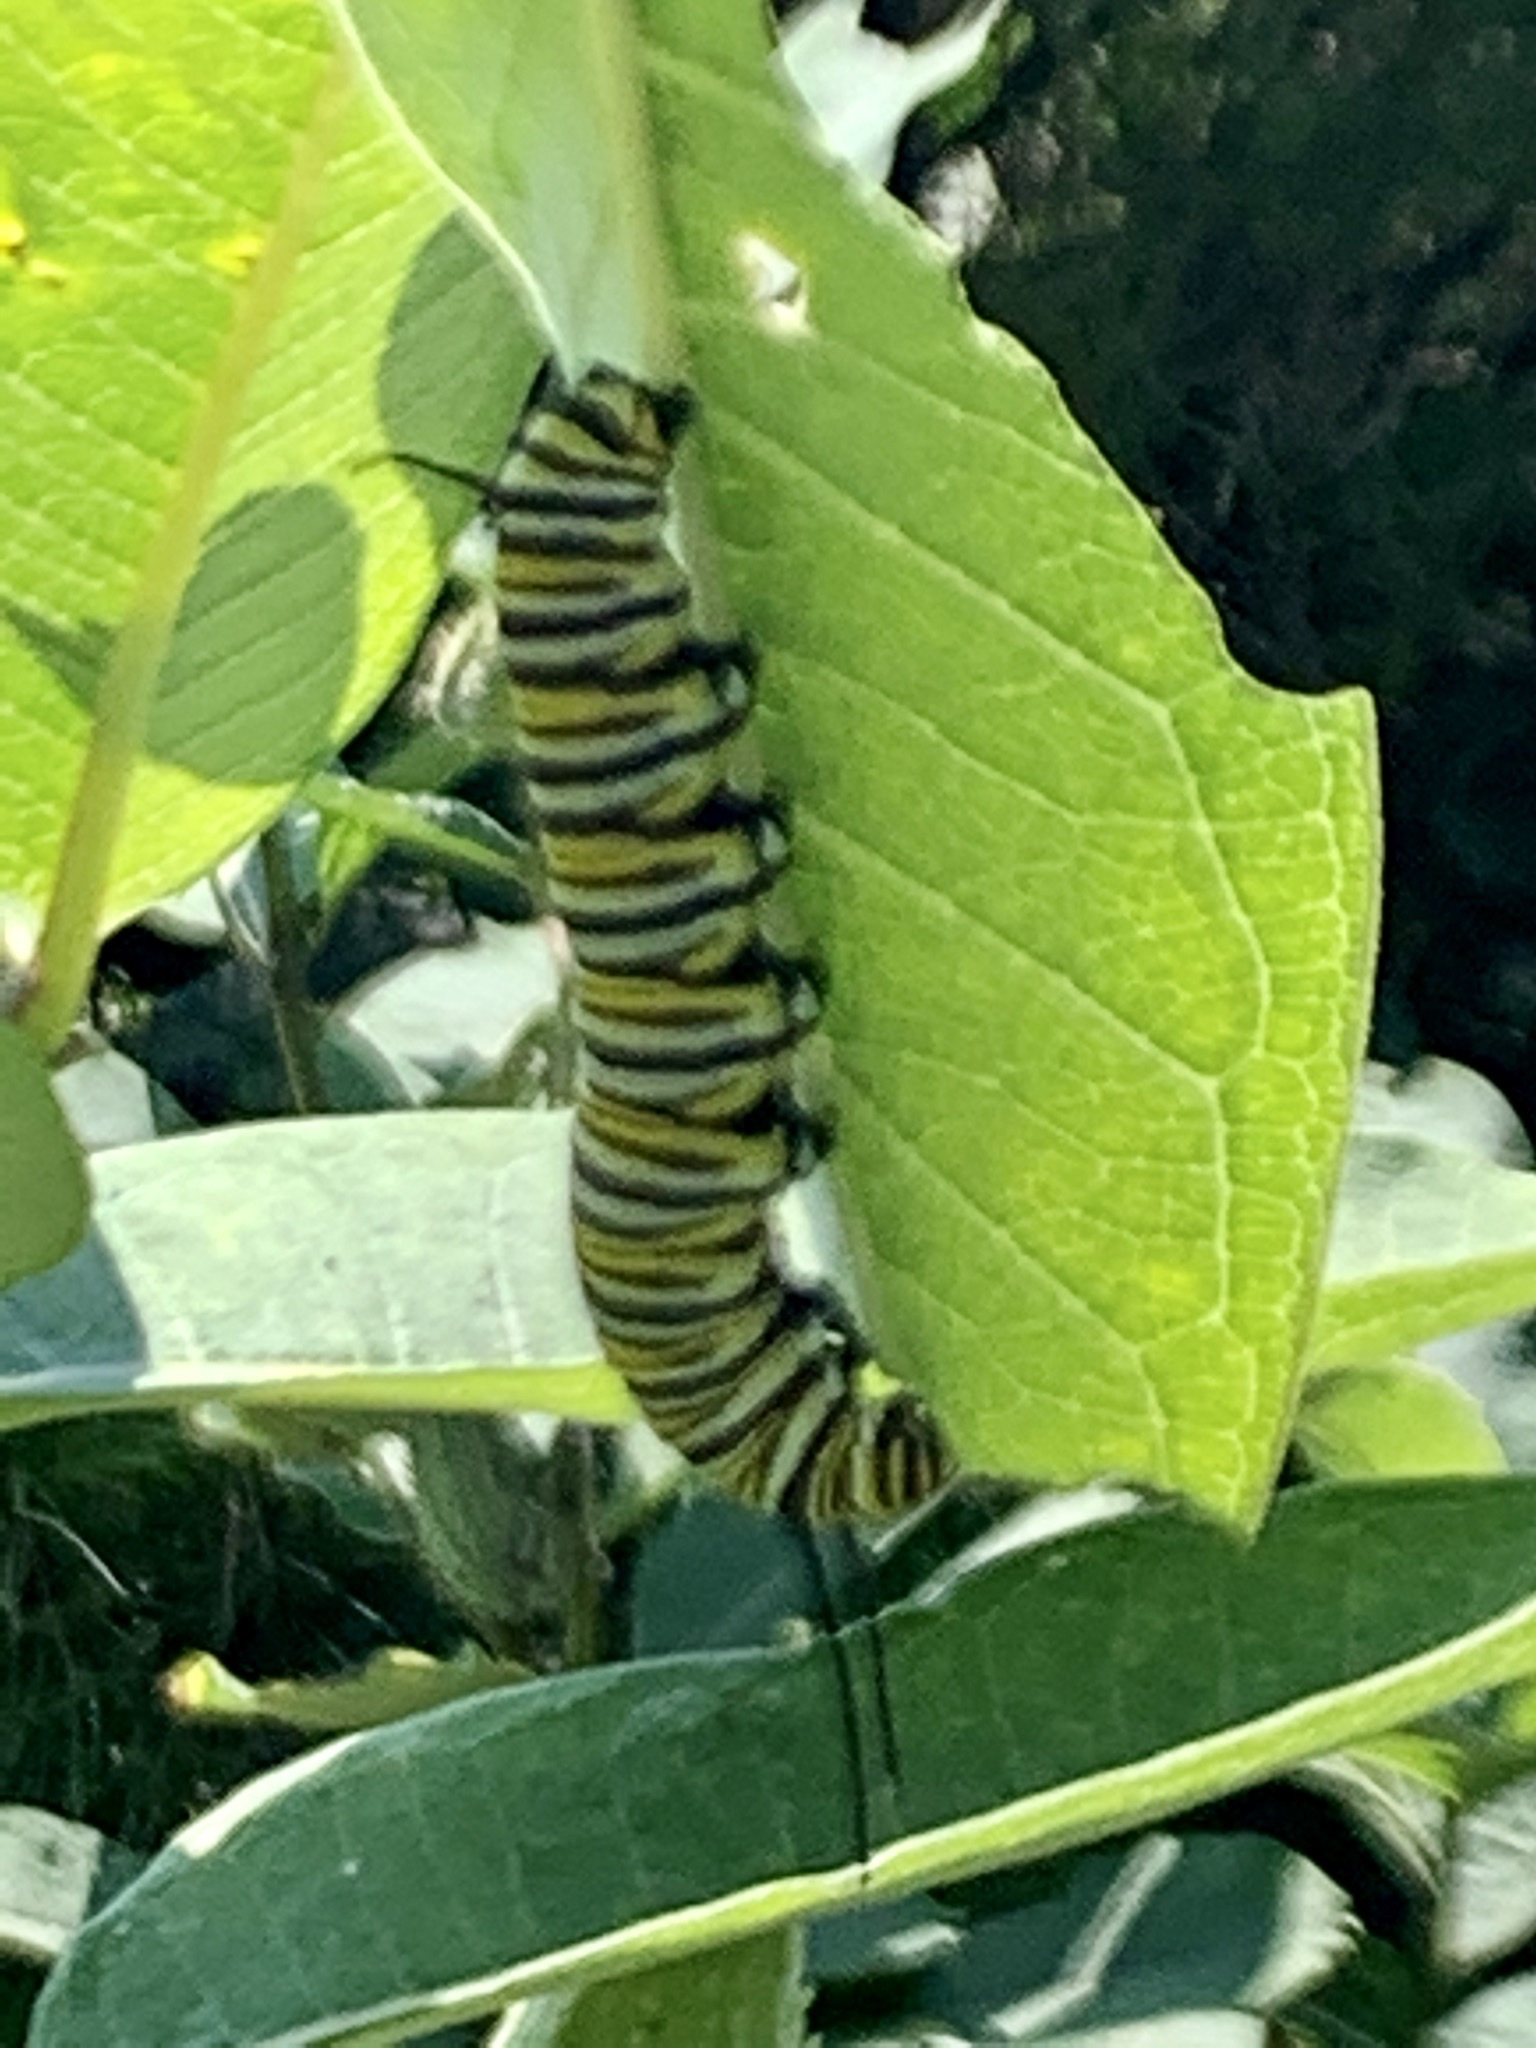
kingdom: Animalia
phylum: Arthropoda
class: Insecta
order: Lepidoptera
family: Nymphalidae
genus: Danaus
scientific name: Danaus plexippus
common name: Monarch
